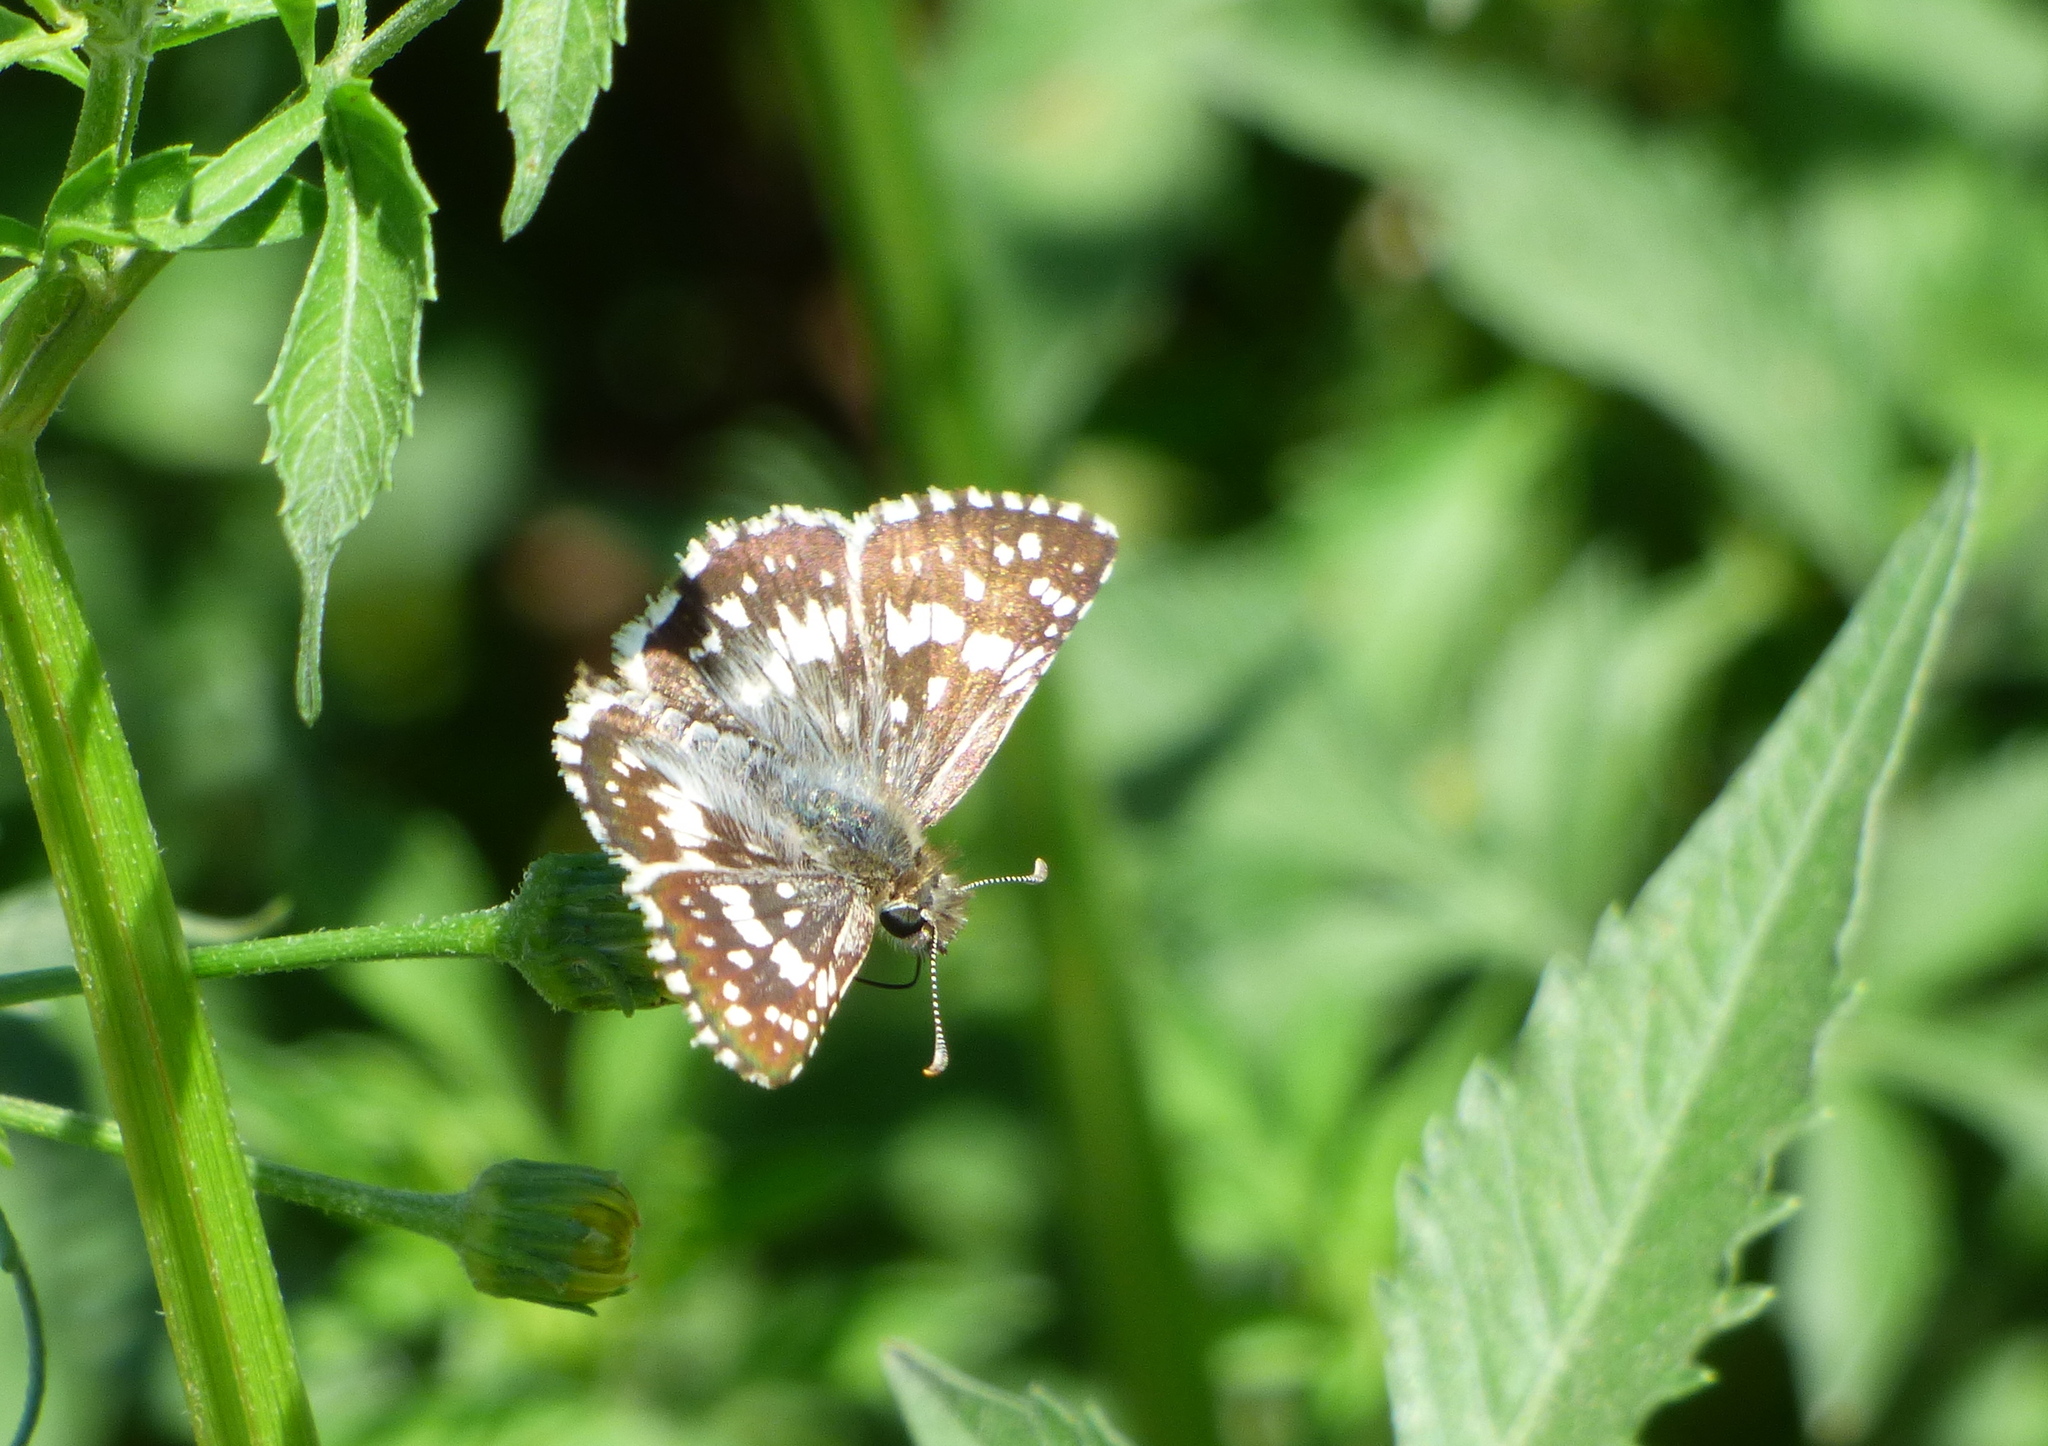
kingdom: Animalia
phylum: Arthropoda
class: Insecta
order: Lepidoptera
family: Hesperiidae
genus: Burnsius
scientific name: Burnsius orcynoides
